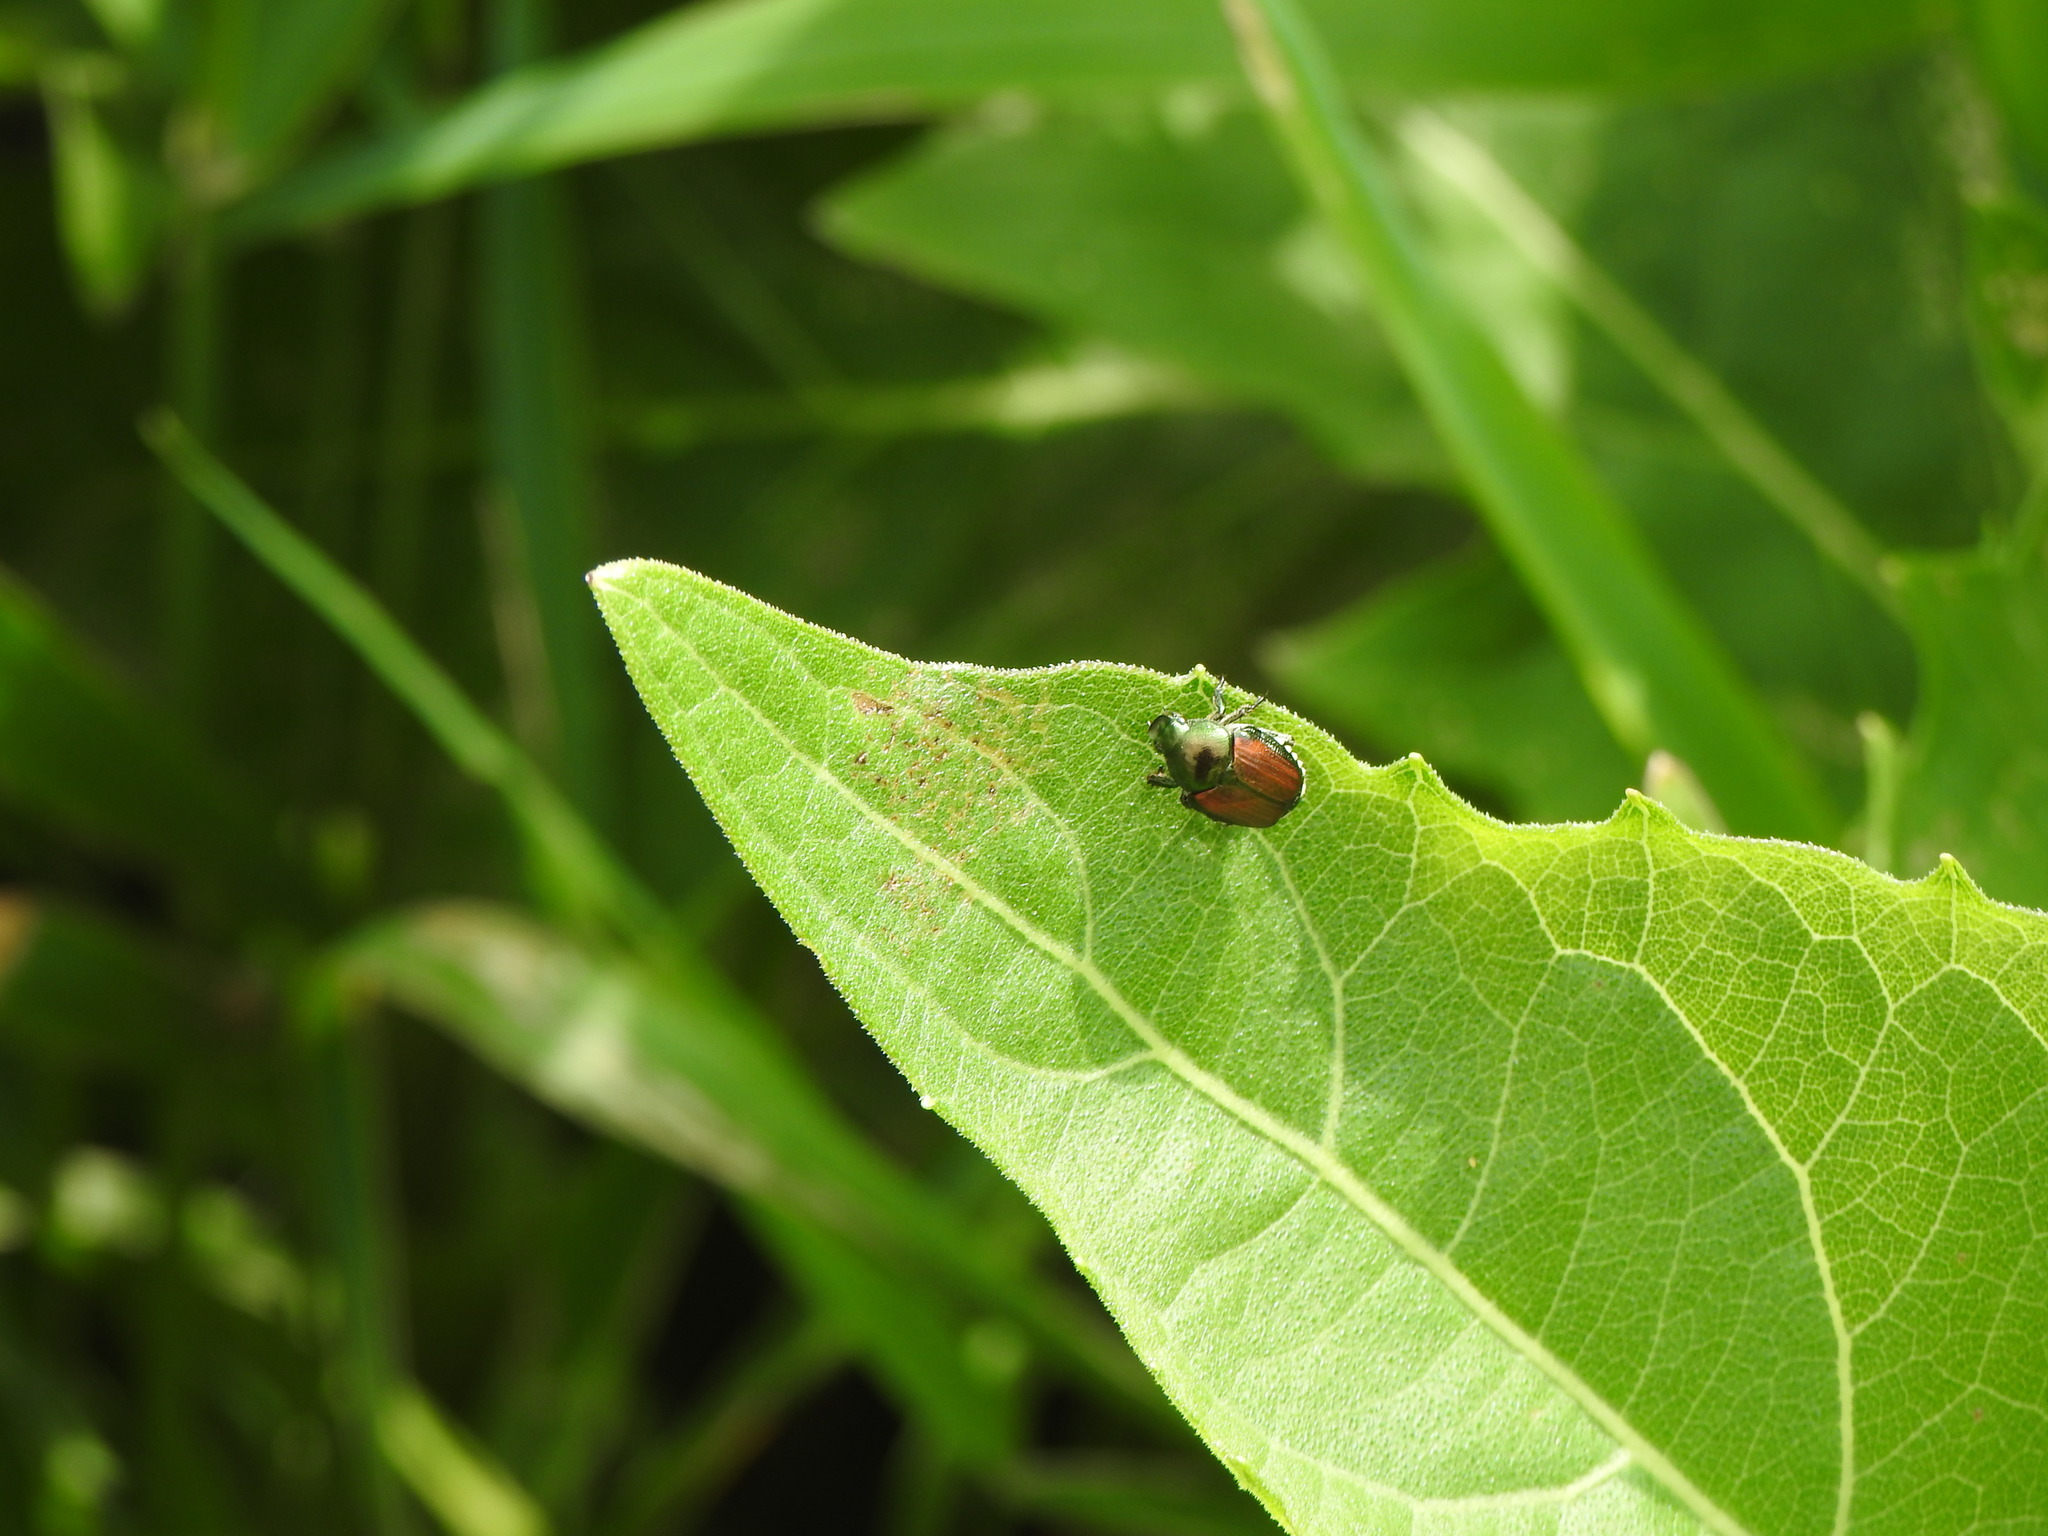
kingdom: Animalia
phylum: Arthropoda
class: Insecta
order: Coleoptera
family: Scarabaeidae
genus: Popillia
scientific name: Popillia japonica
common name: Japanese beetle
